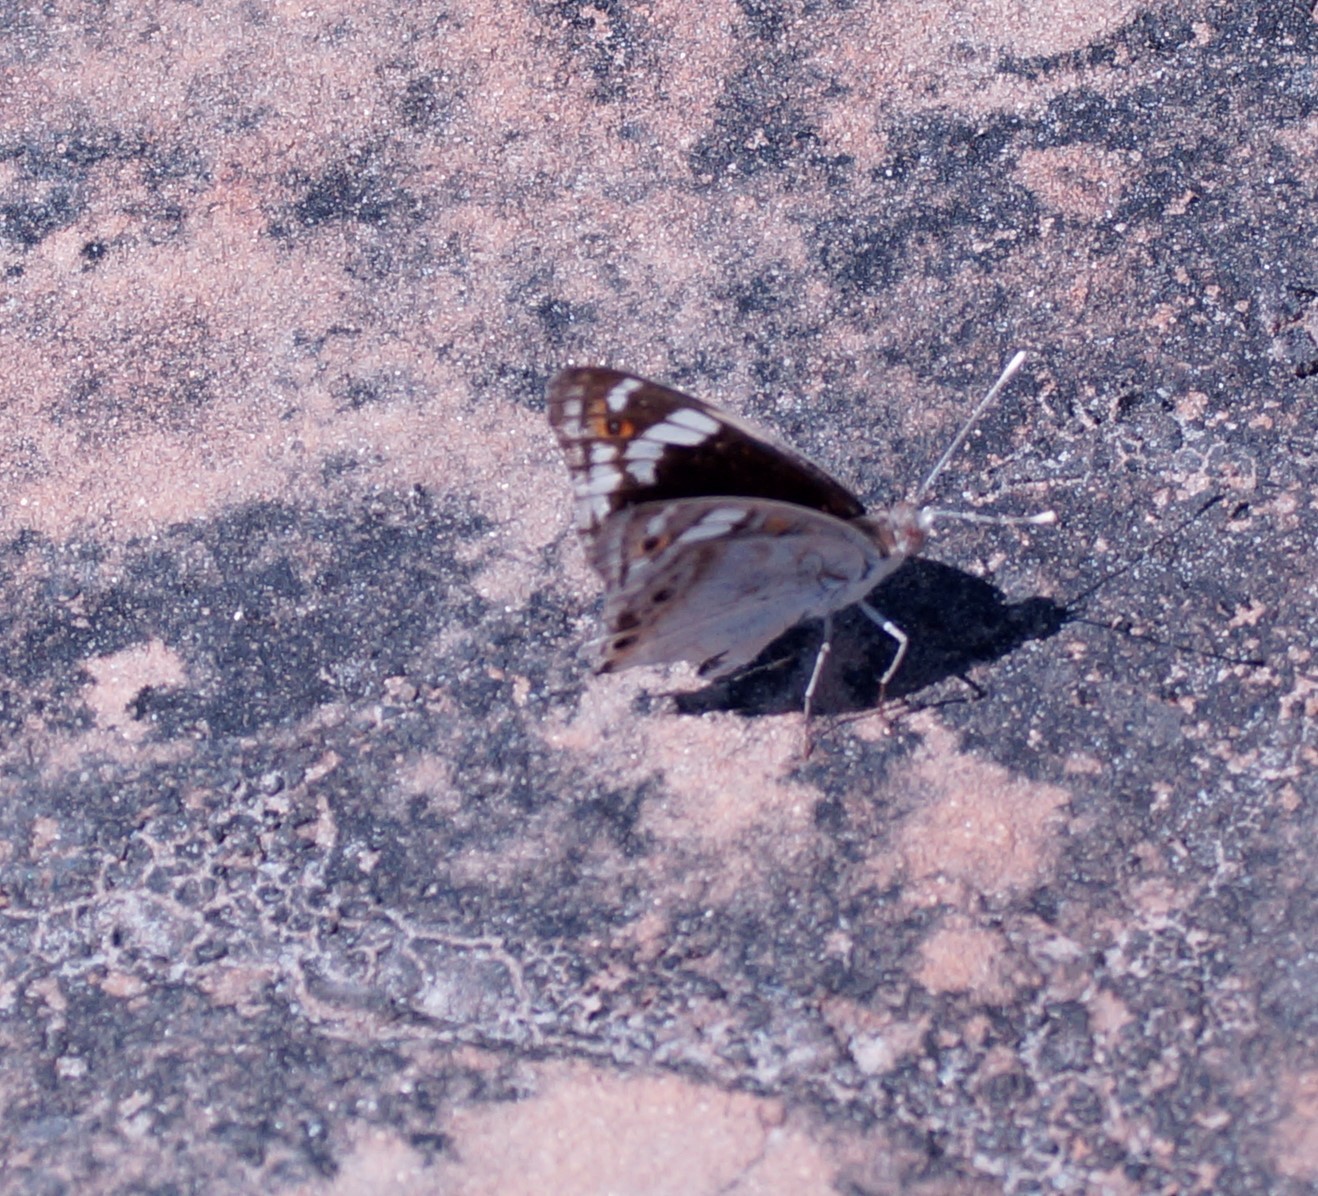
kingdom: Animalia
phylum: Arthropoda
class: Insecta
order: Lepidoptera
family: Nymphalidae
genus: Junonia
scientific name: Junonia orithya
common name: Blue pansy
